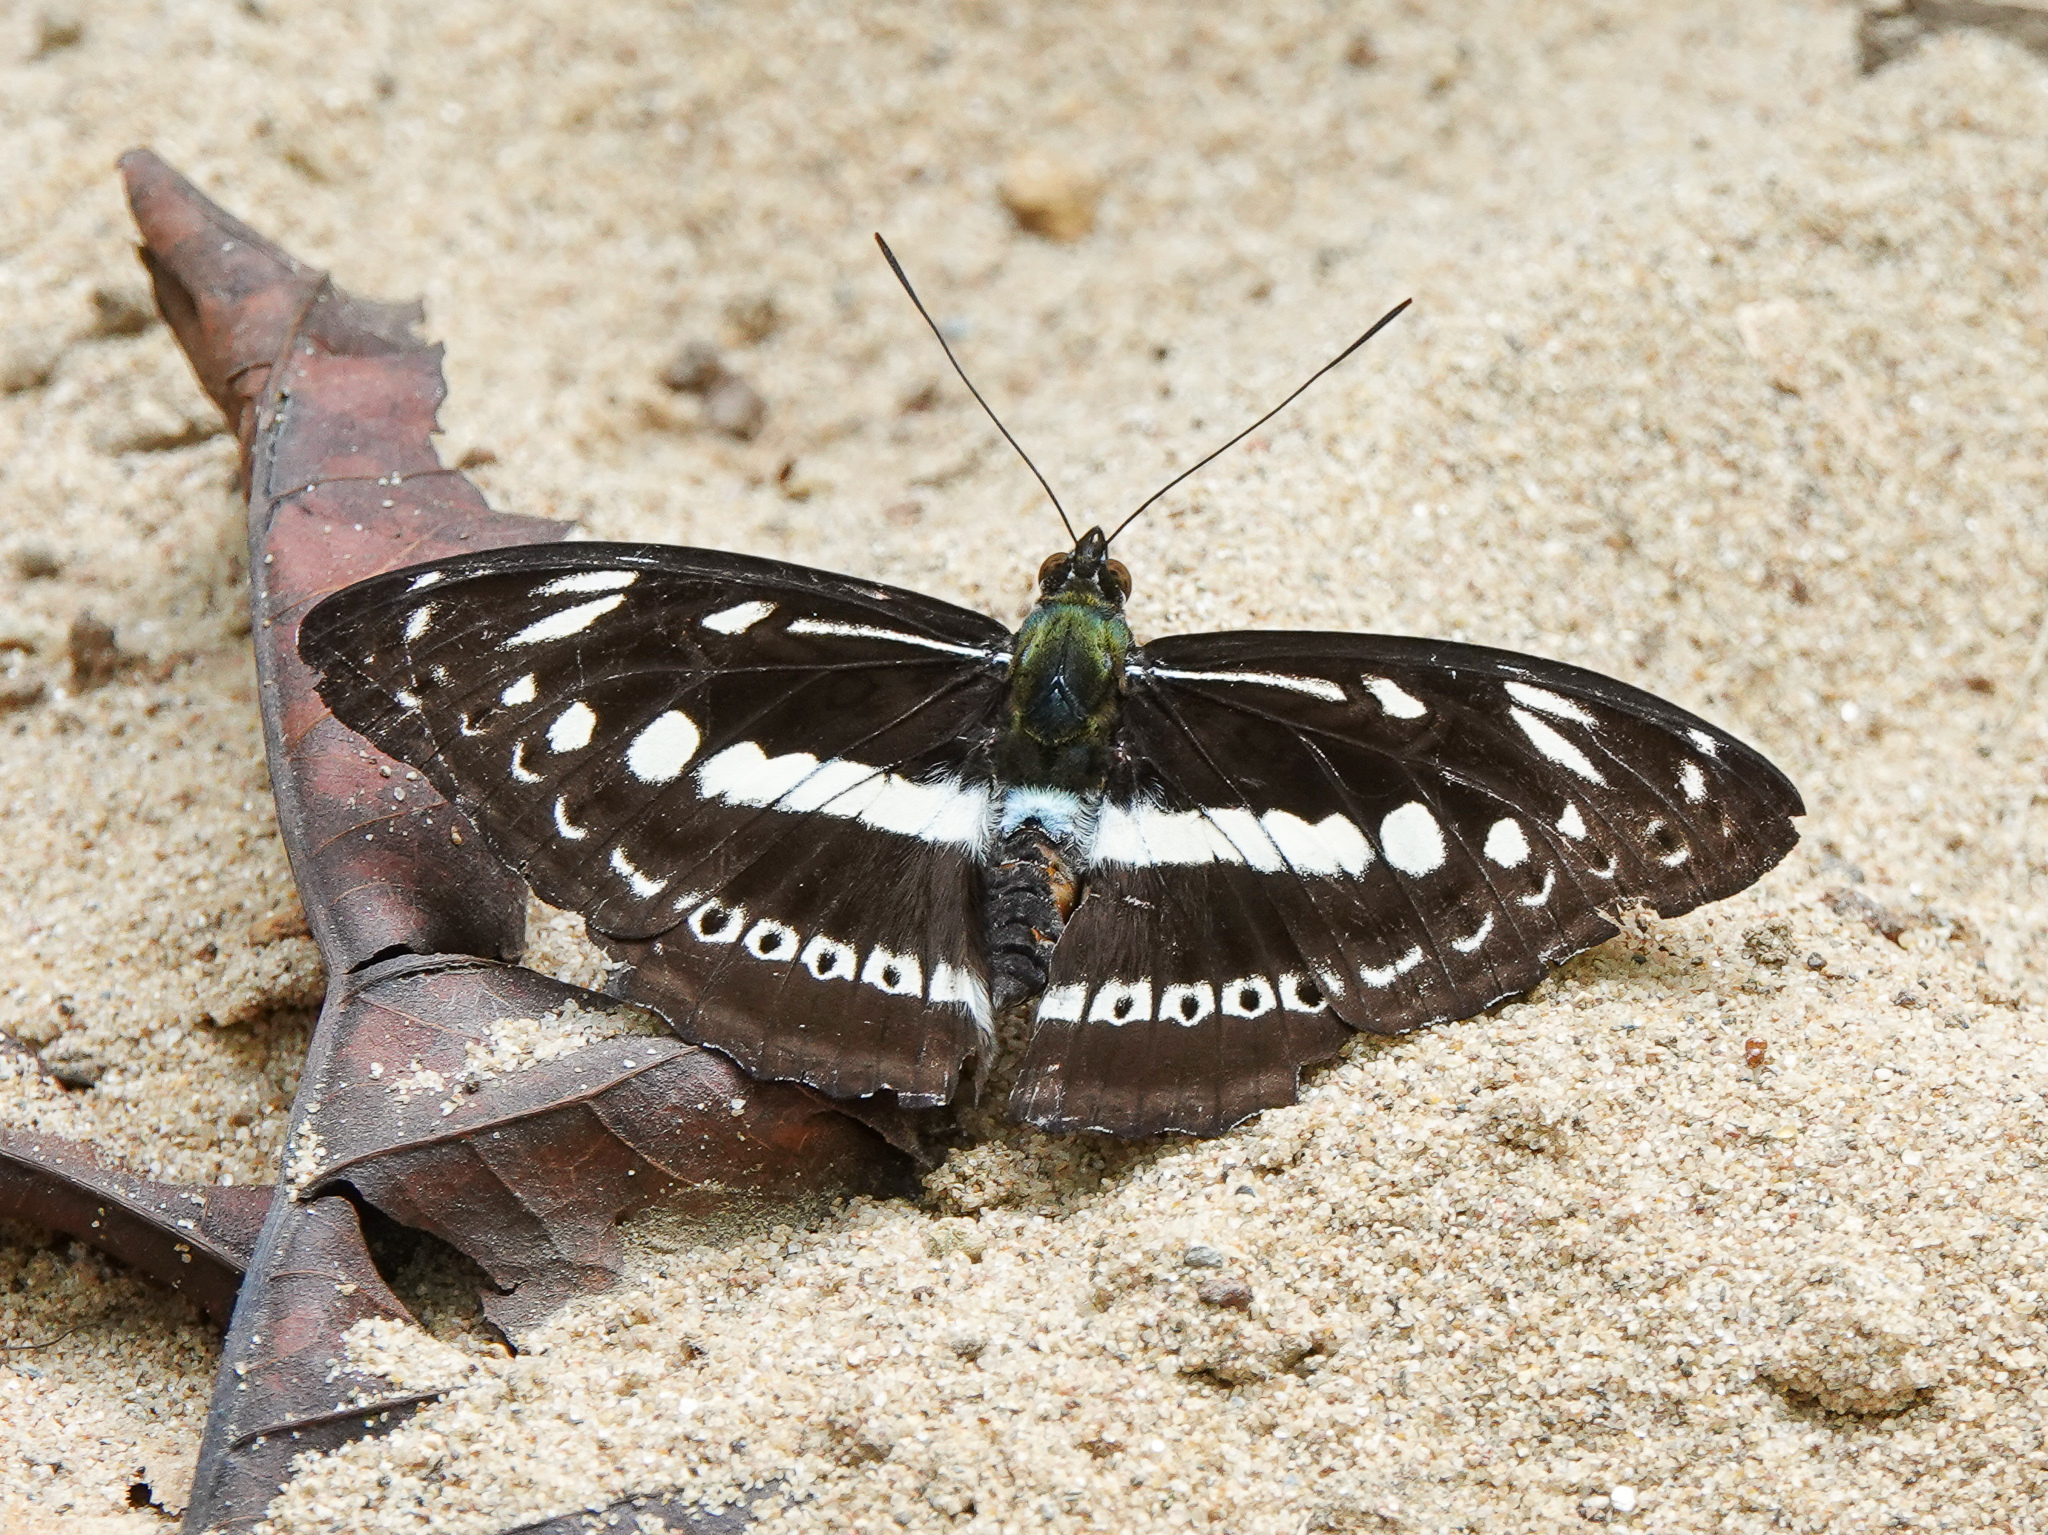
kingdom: Animalia
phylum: Arthropoda
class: Insecta
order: Lepidoptera
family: Nymphalidae
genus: Parathyma
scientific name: Parathyma asura
